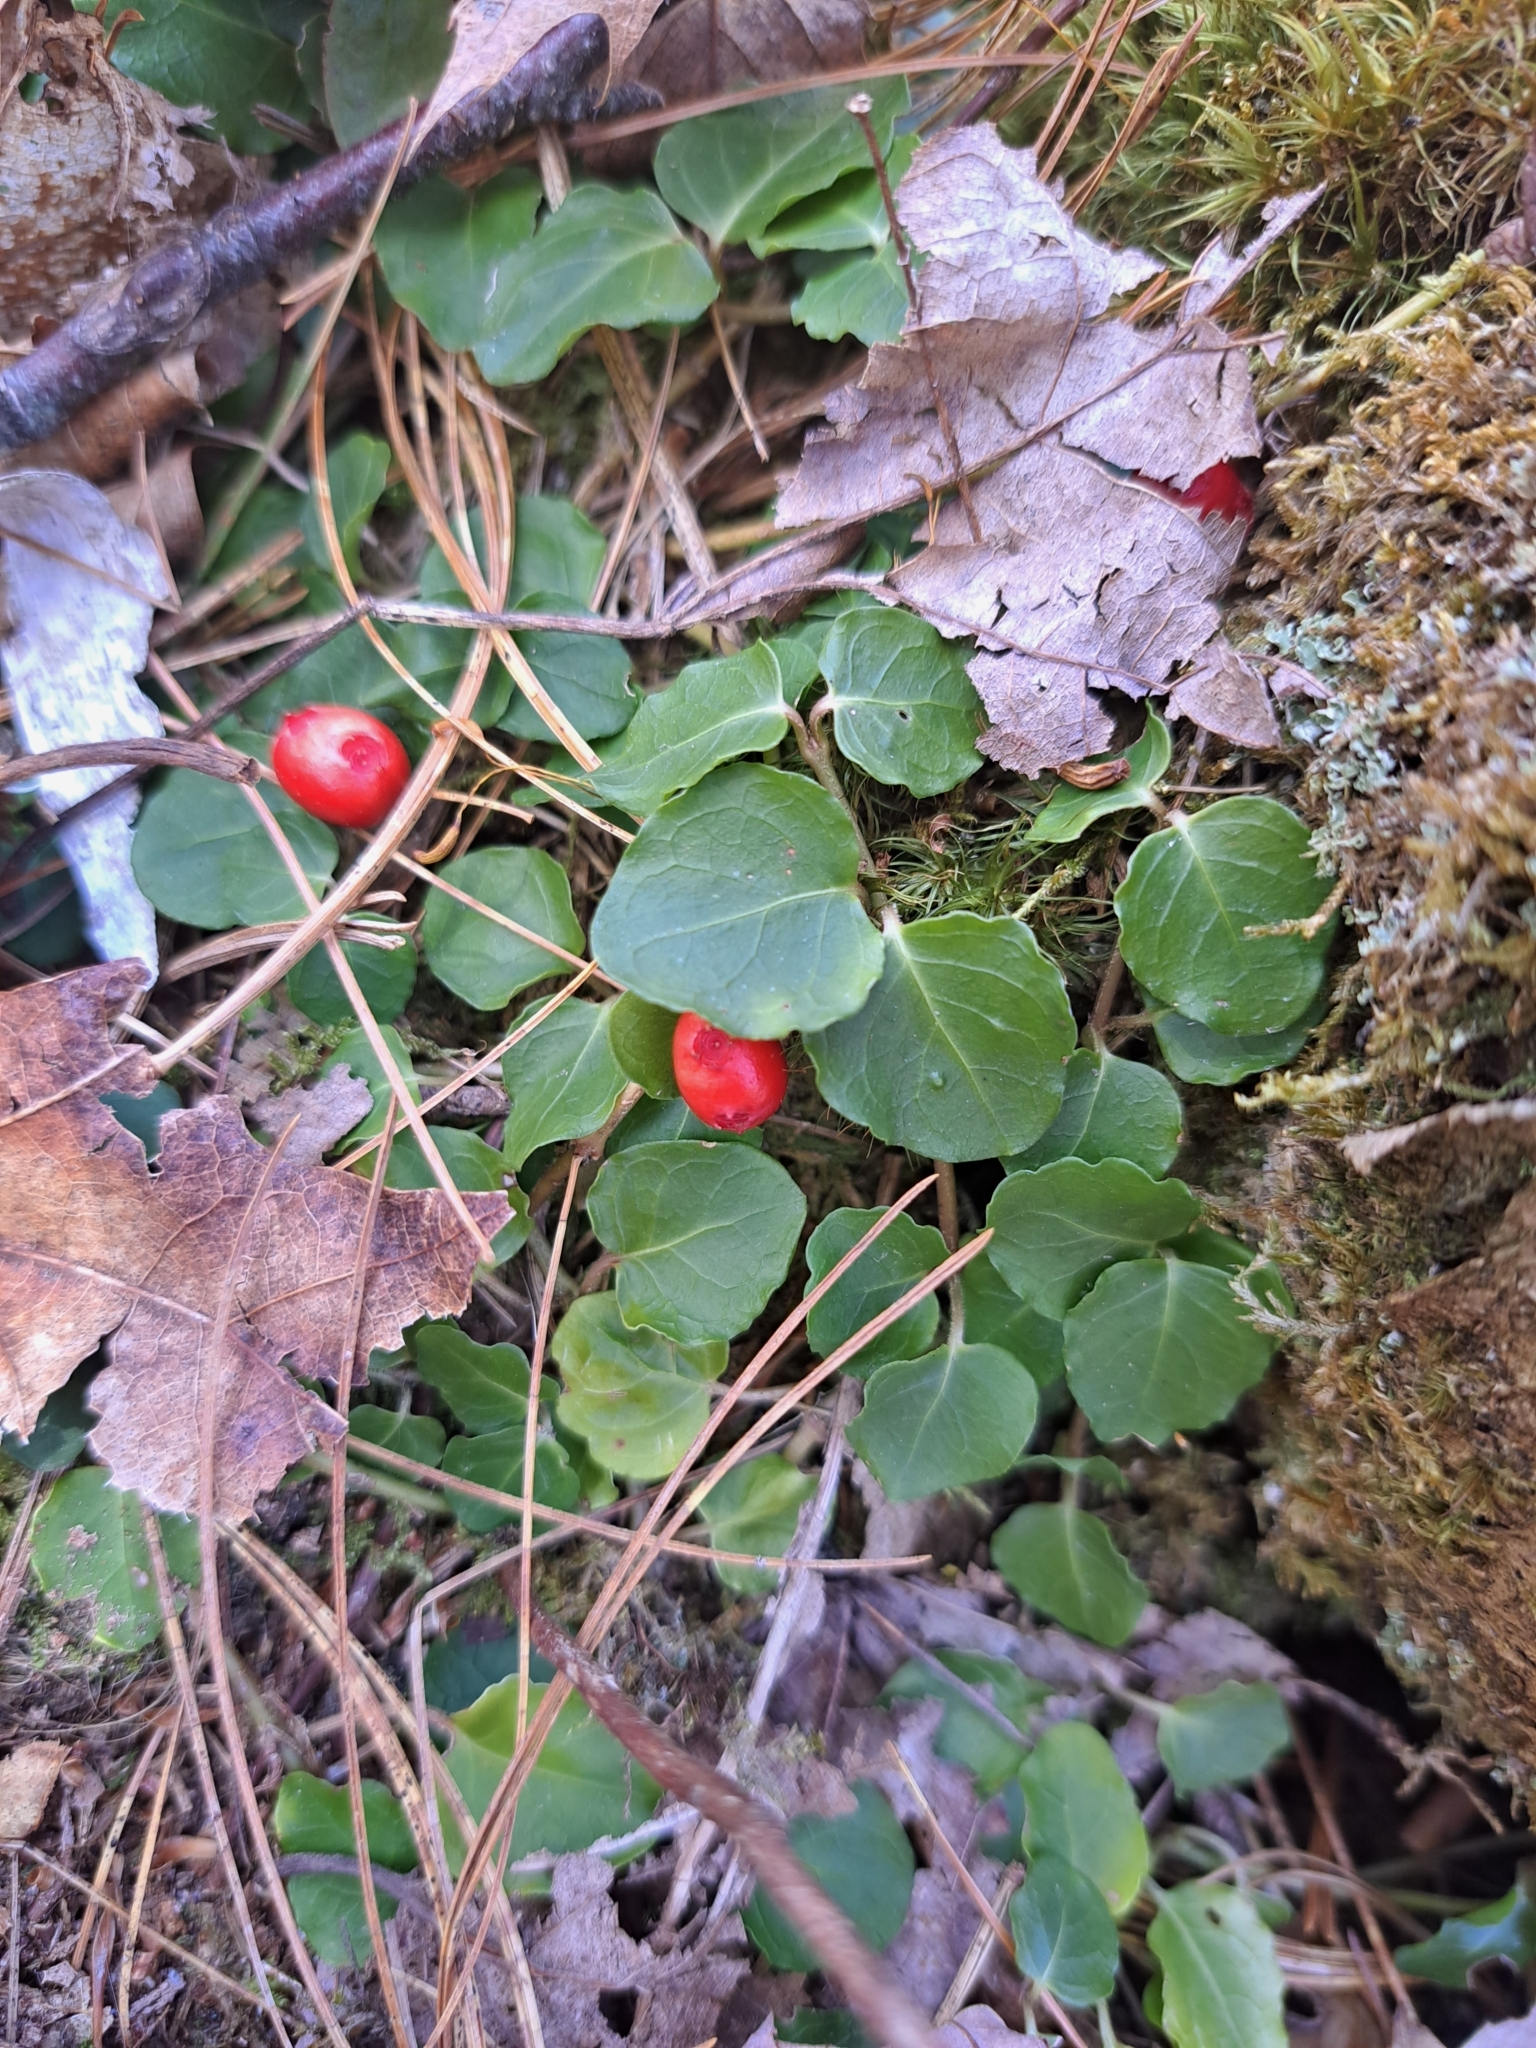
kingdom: Plantae
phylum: Tracheophyta
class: Magnoliopsida
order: Gentianales
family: Rubiaceae
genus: Mitchella
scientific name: Mitchella repens
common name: Partridge-berry
